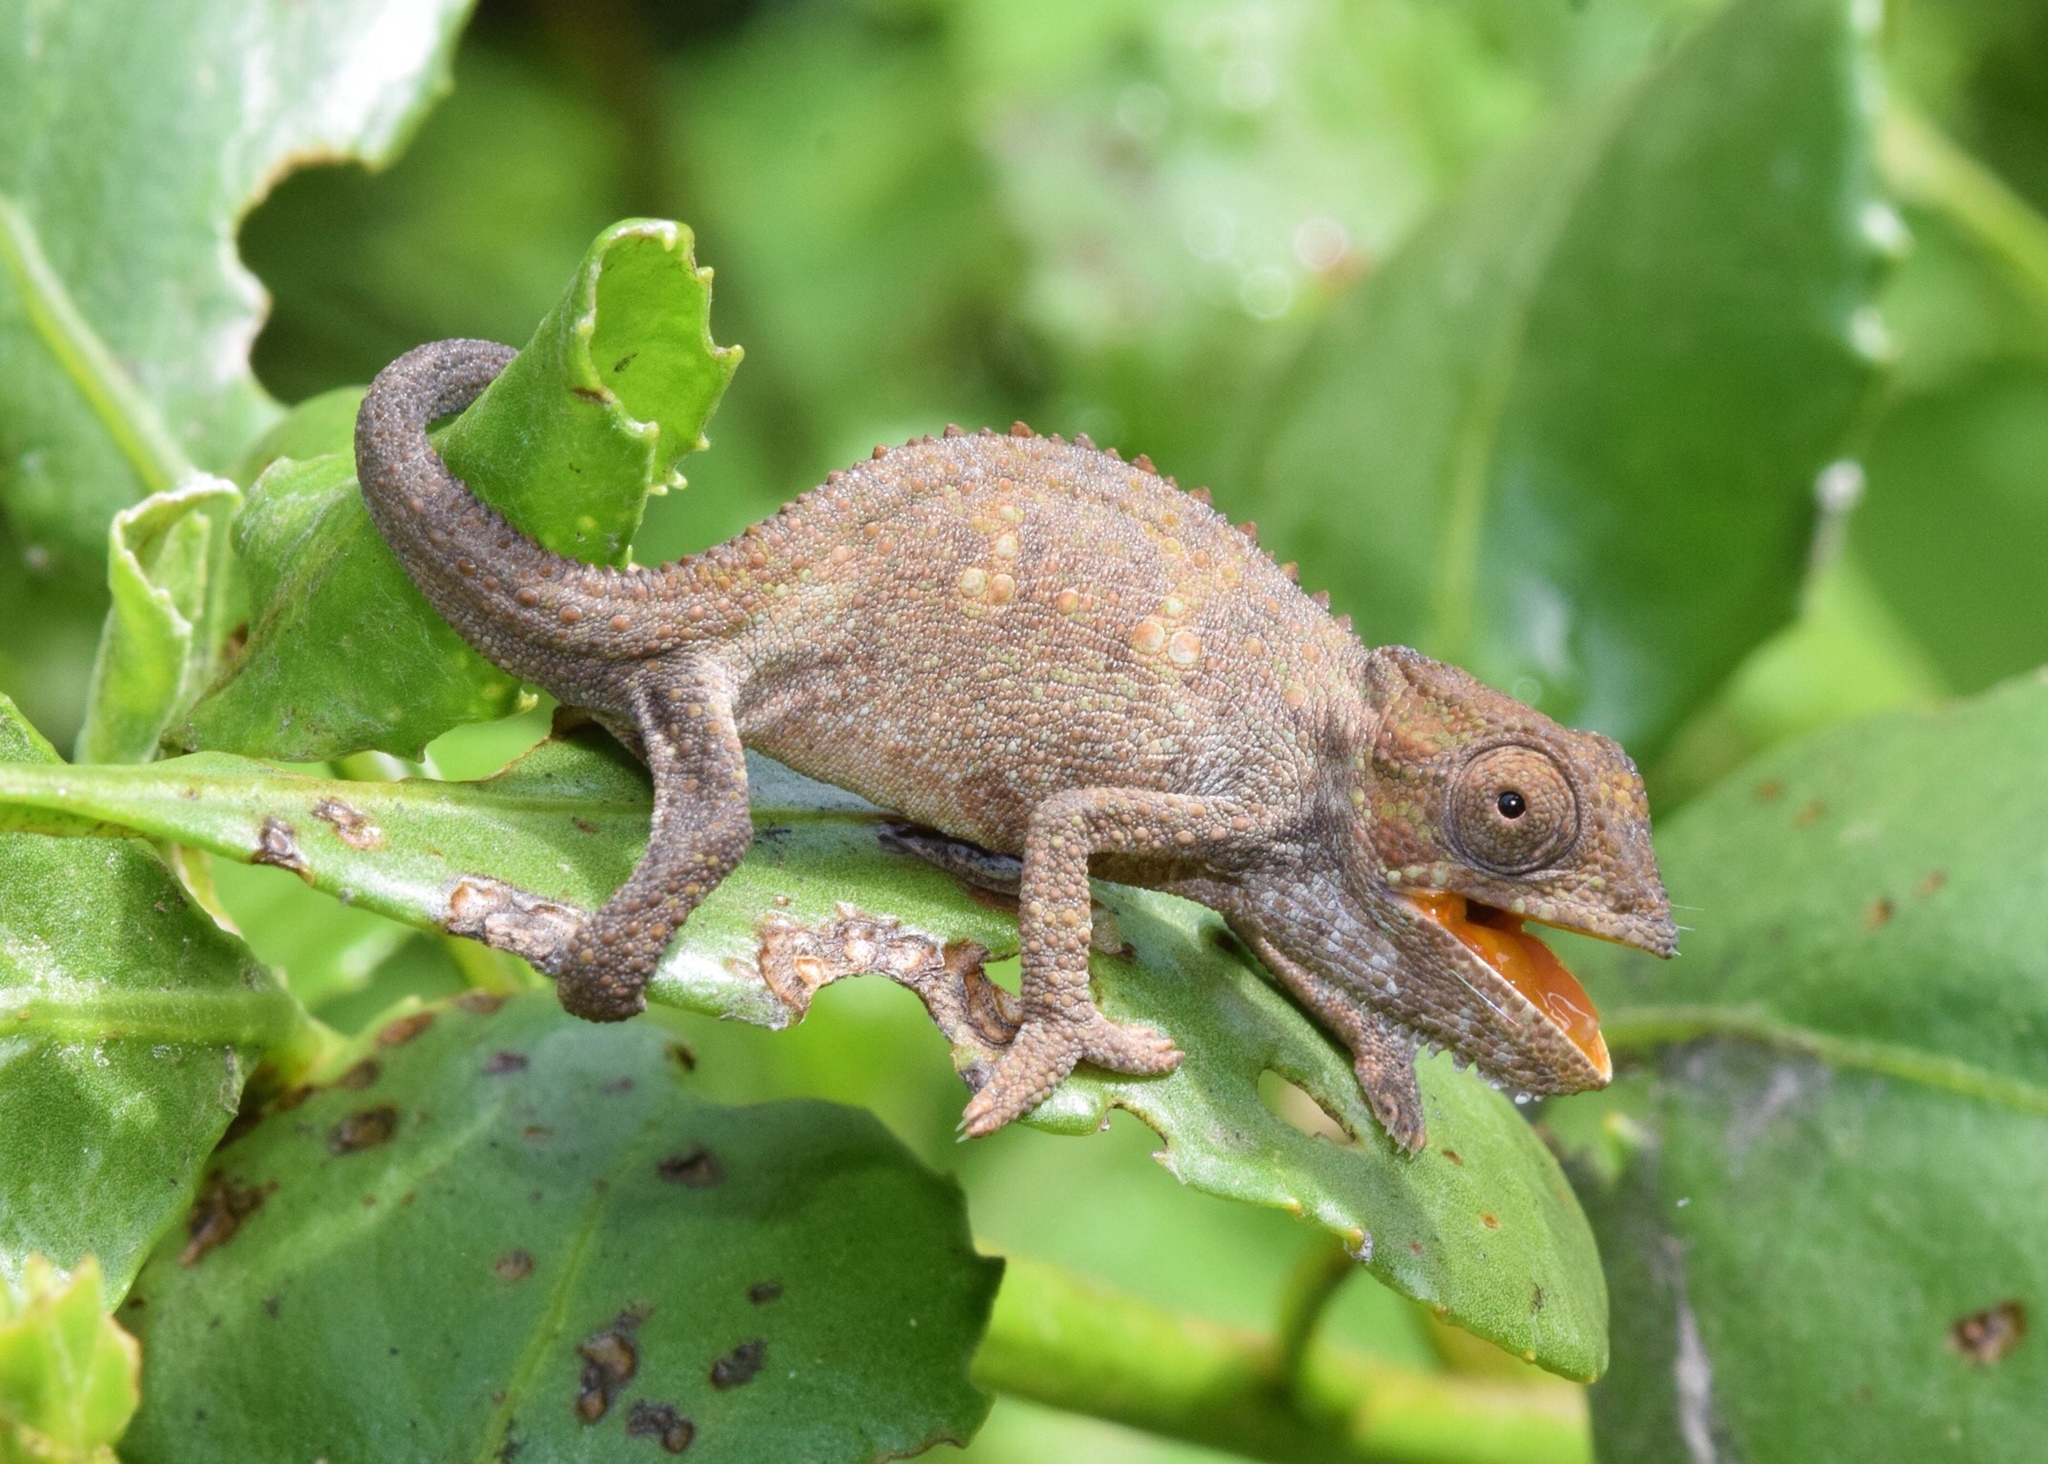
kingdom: Animalia
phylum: Chordata
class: Squamata
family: Chamaeleonidae
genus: Bradypodion
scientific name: Bradypodion melanocephalum
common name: Black-headed dwarf chameleon
